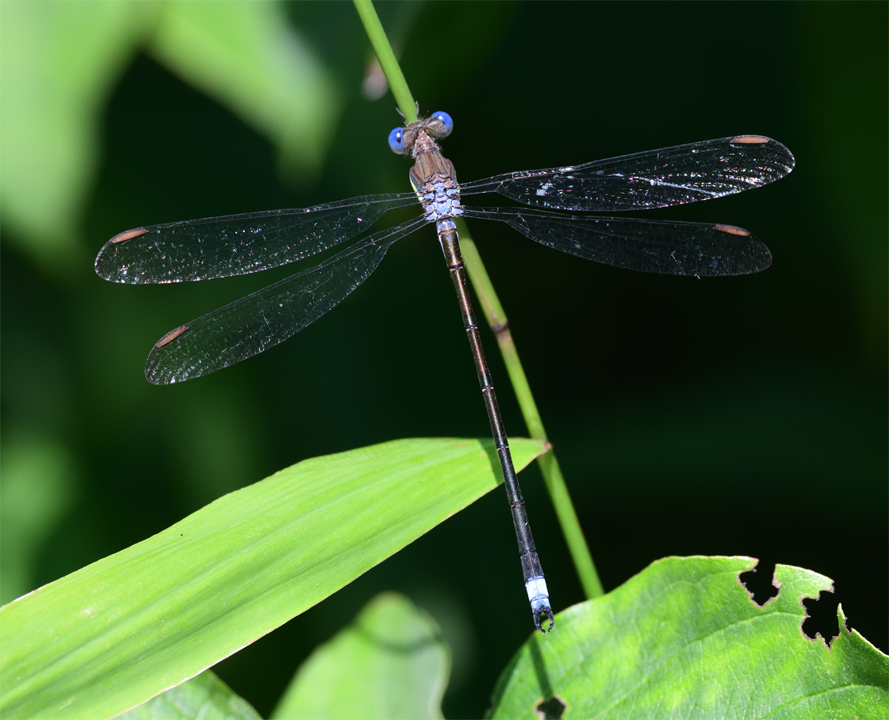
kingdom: Animalia
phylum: Arthropoda
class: Insecta
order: Odonata
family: Lestidae
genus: Archilestes
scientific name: Archilestes grandis
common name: Great spreadwing
